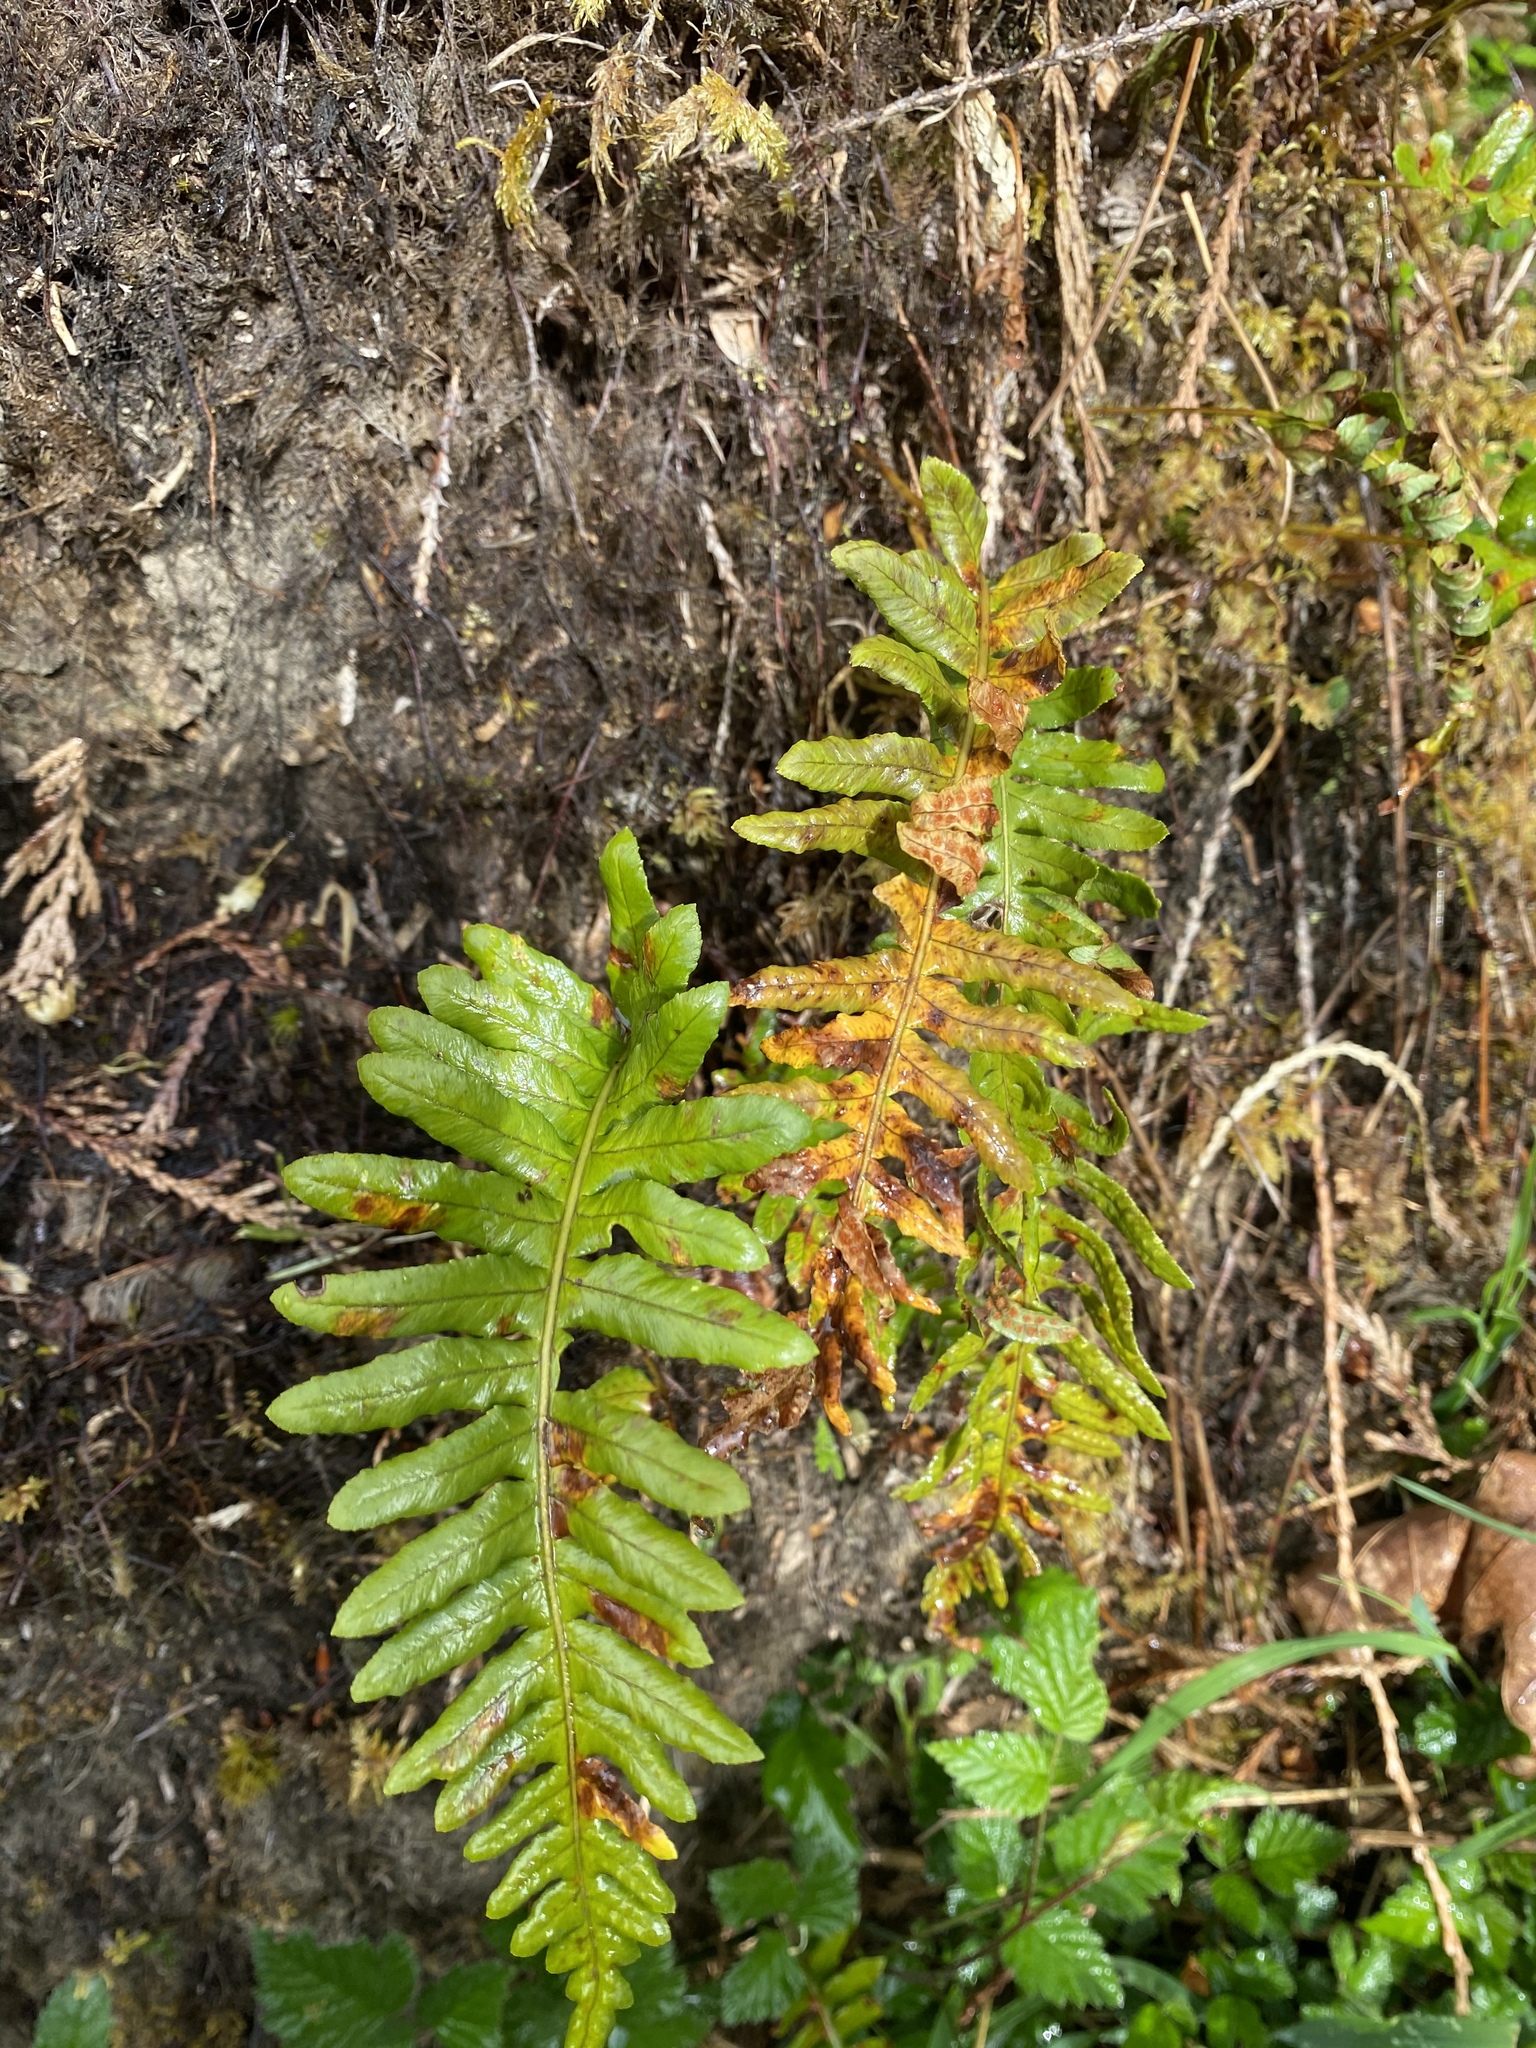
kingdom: Plantae
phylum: Tracheophyta
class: Polypodiopsida
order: Polypodiales
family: Polypodiaceae
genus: Polypodium
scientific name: Polypodium glycyrrhiza
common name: Licorice fern
